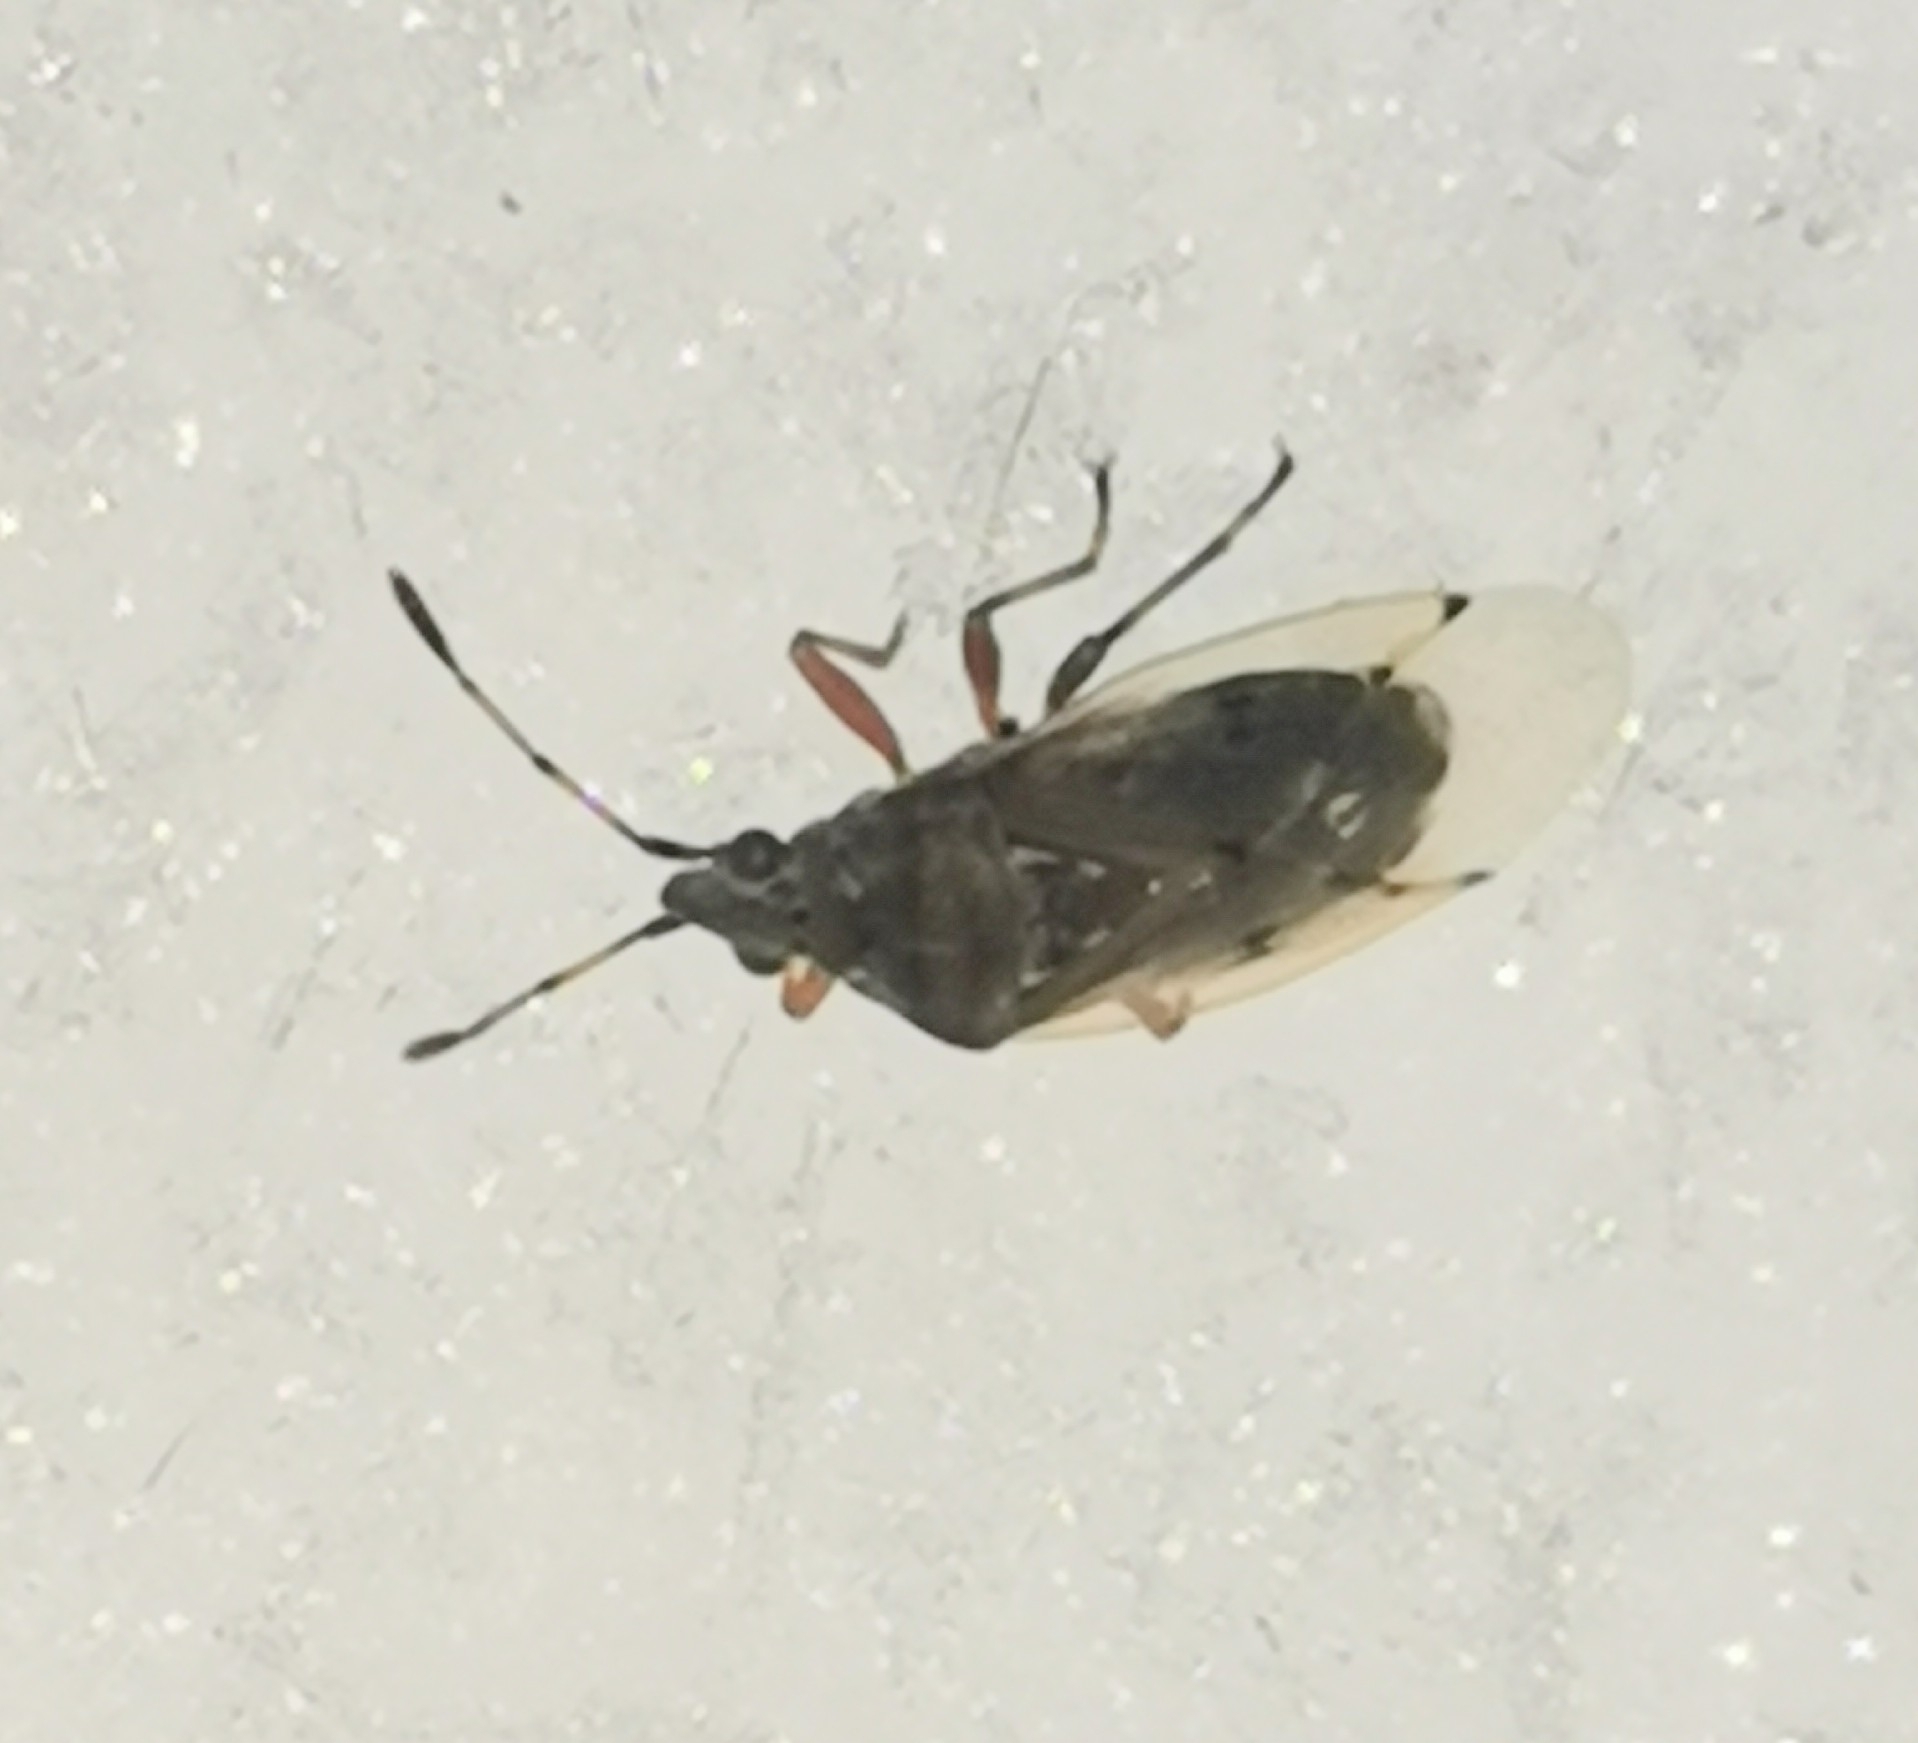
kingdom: Animalia
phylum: Arthropoda
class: Insecta
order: Hemiptera
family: Lygaeidae
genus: Kleidocerys
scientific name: Kleidocerys resedae
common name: Birch catkin bug
